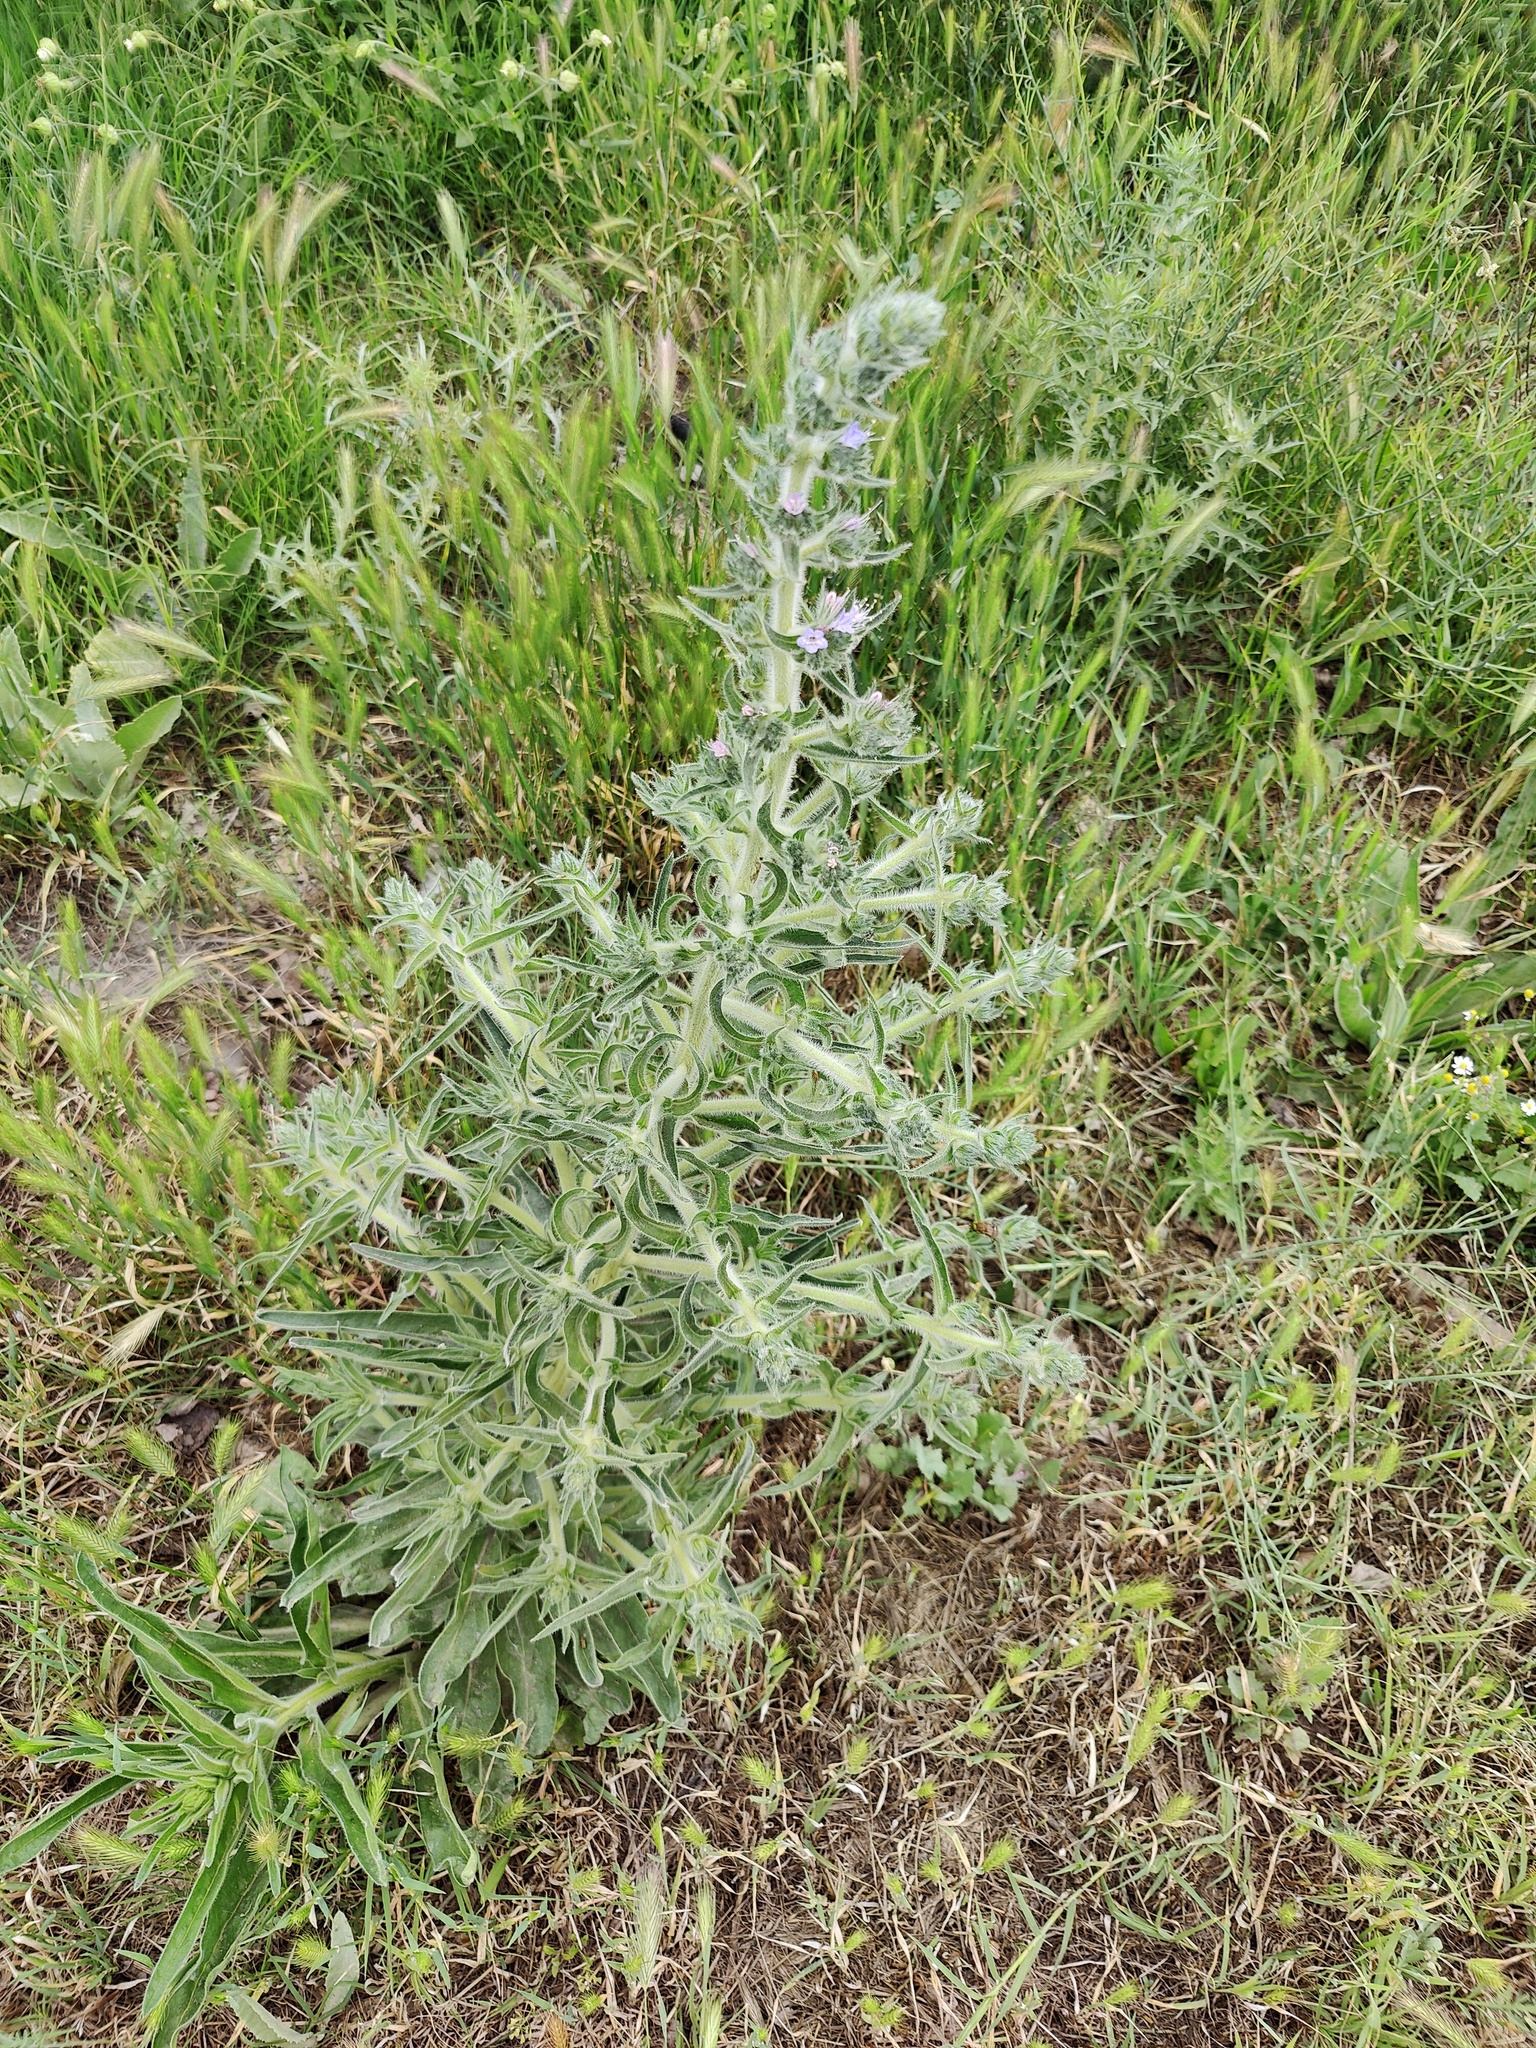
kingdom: Plantae
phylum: Tracheophyta
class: Magnoliopsida
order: Boraginales
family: Boraginaceae
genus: Echium
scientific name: Echium italicum
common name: Italian viper's bugloss
